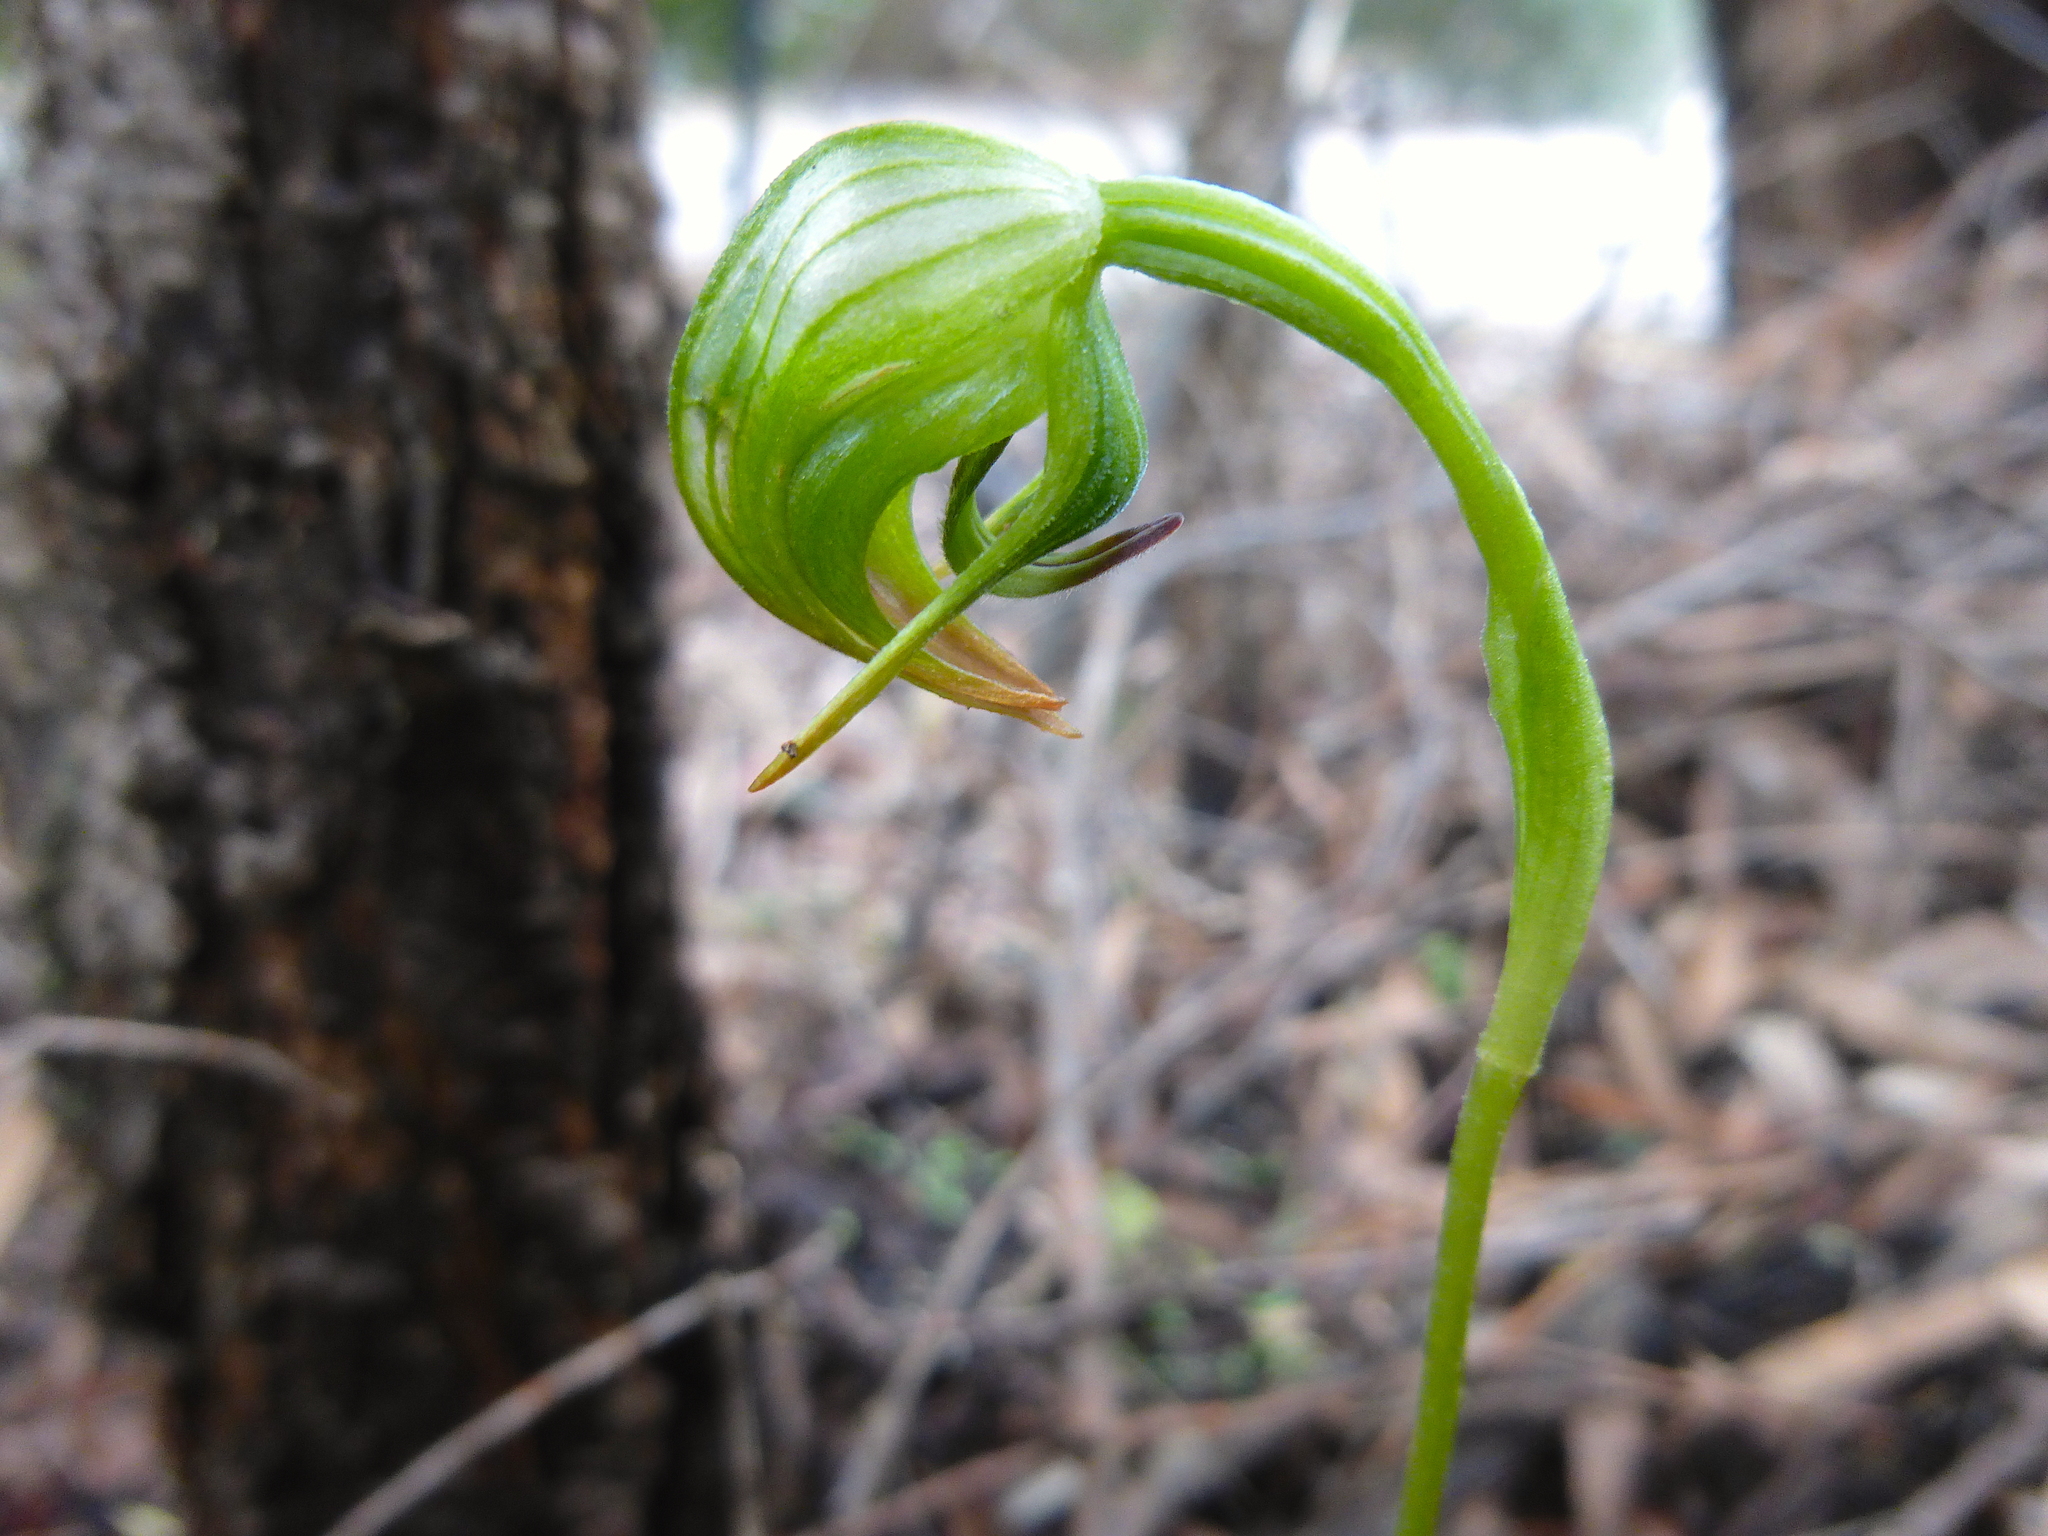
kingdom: Plantae
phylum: Tracheophyta
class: Liliopsida
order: Asparagales
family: Orchidaceae
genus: Pterostylis
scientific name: Pterostylis nutans
